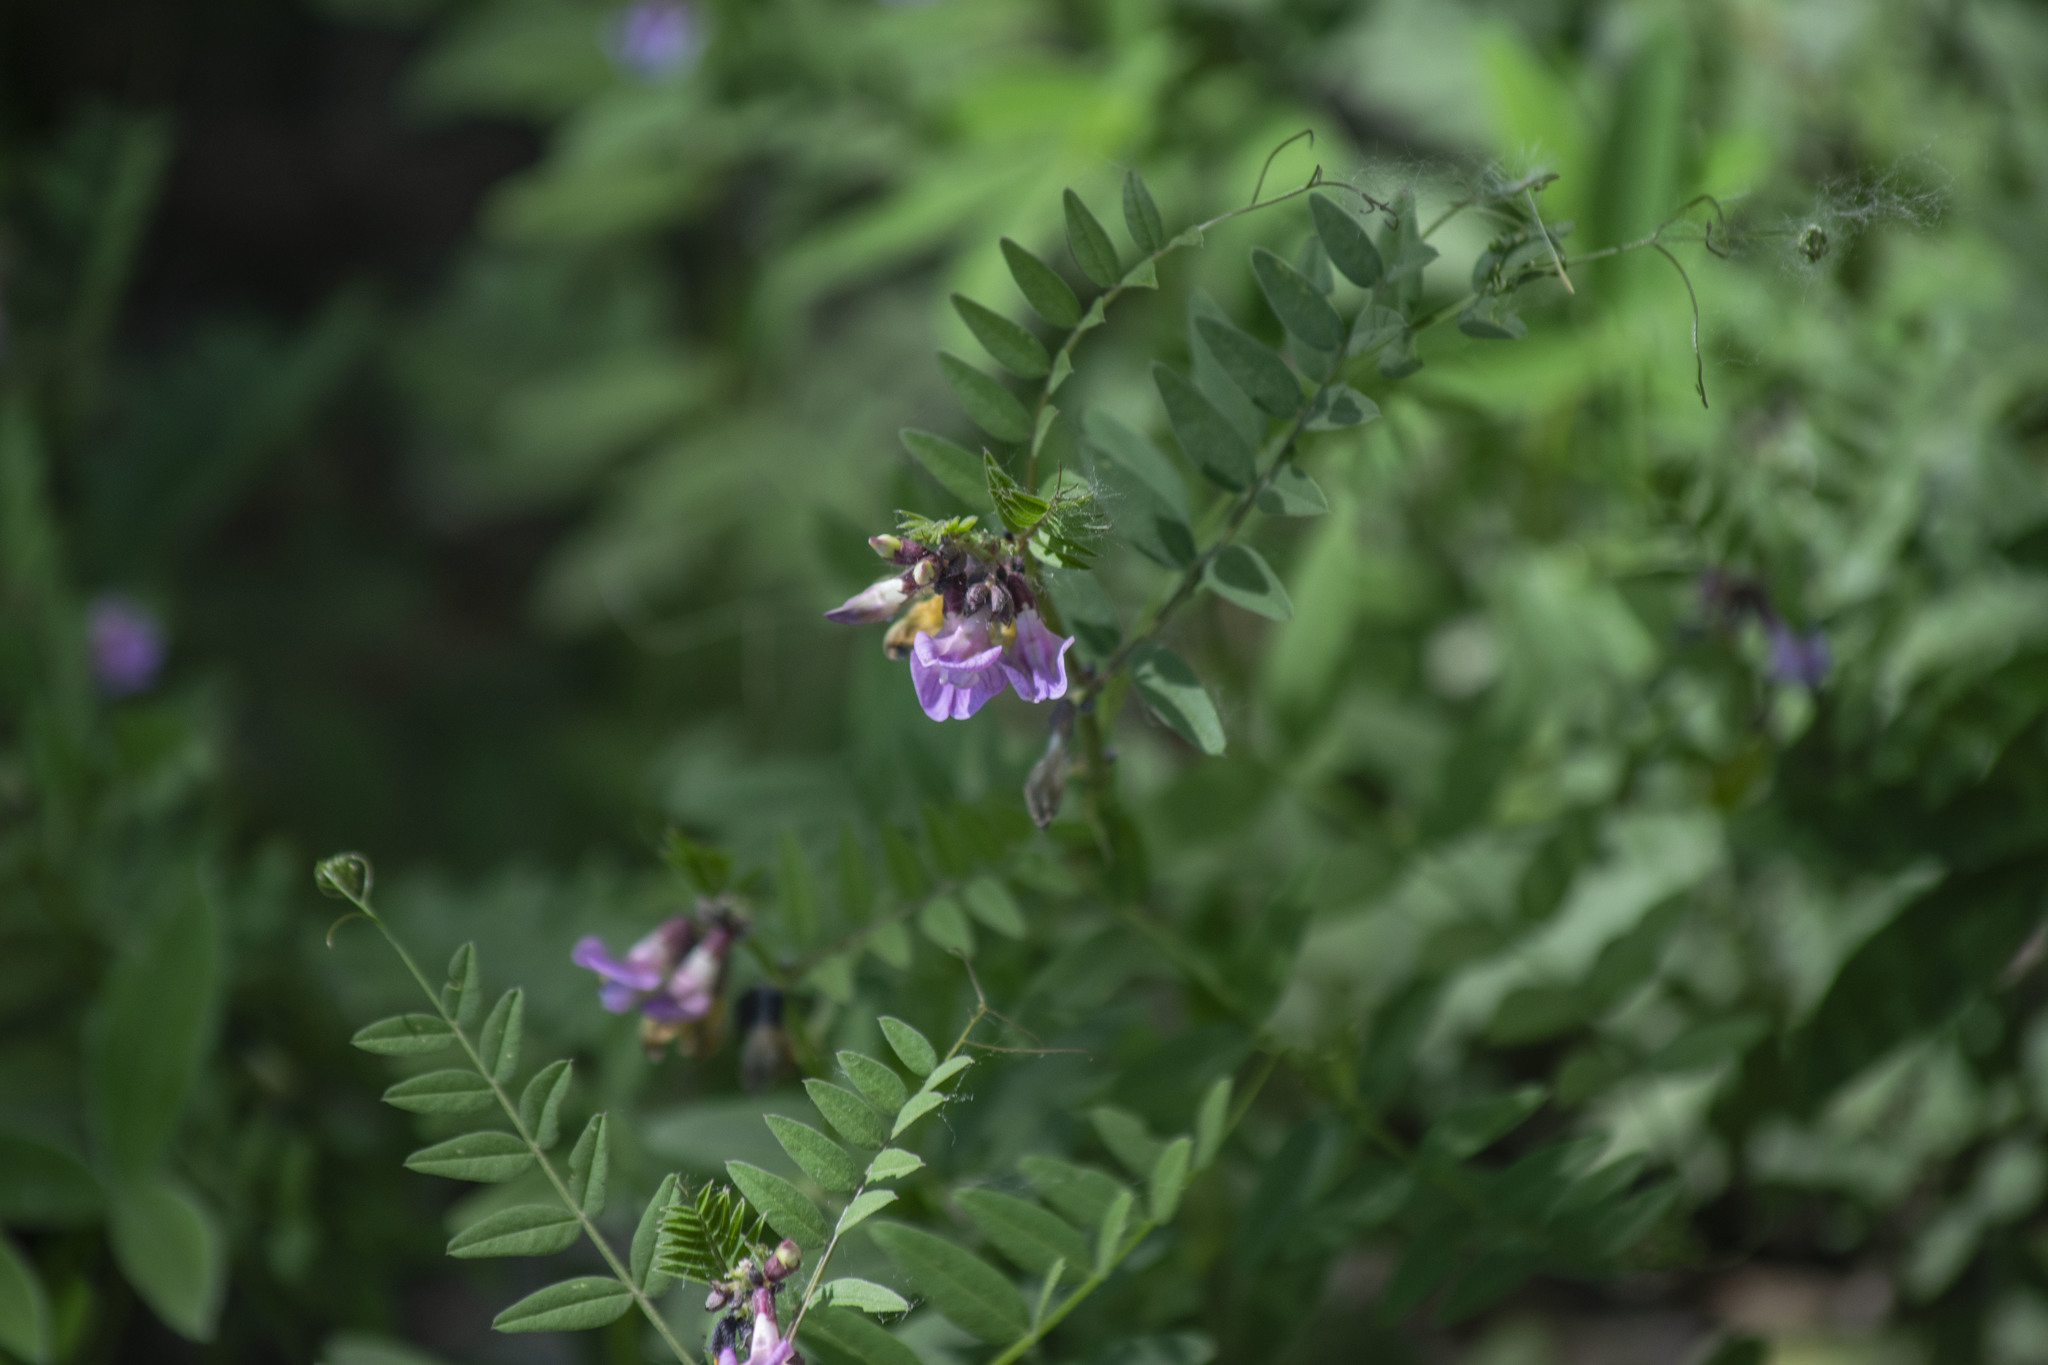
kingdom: Plantae
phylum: Tracheophyta
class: Magnoliopsida
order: Fabales
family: Fabaceae
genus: Vicia
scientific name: Vicia sepium
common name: Bush vetch
